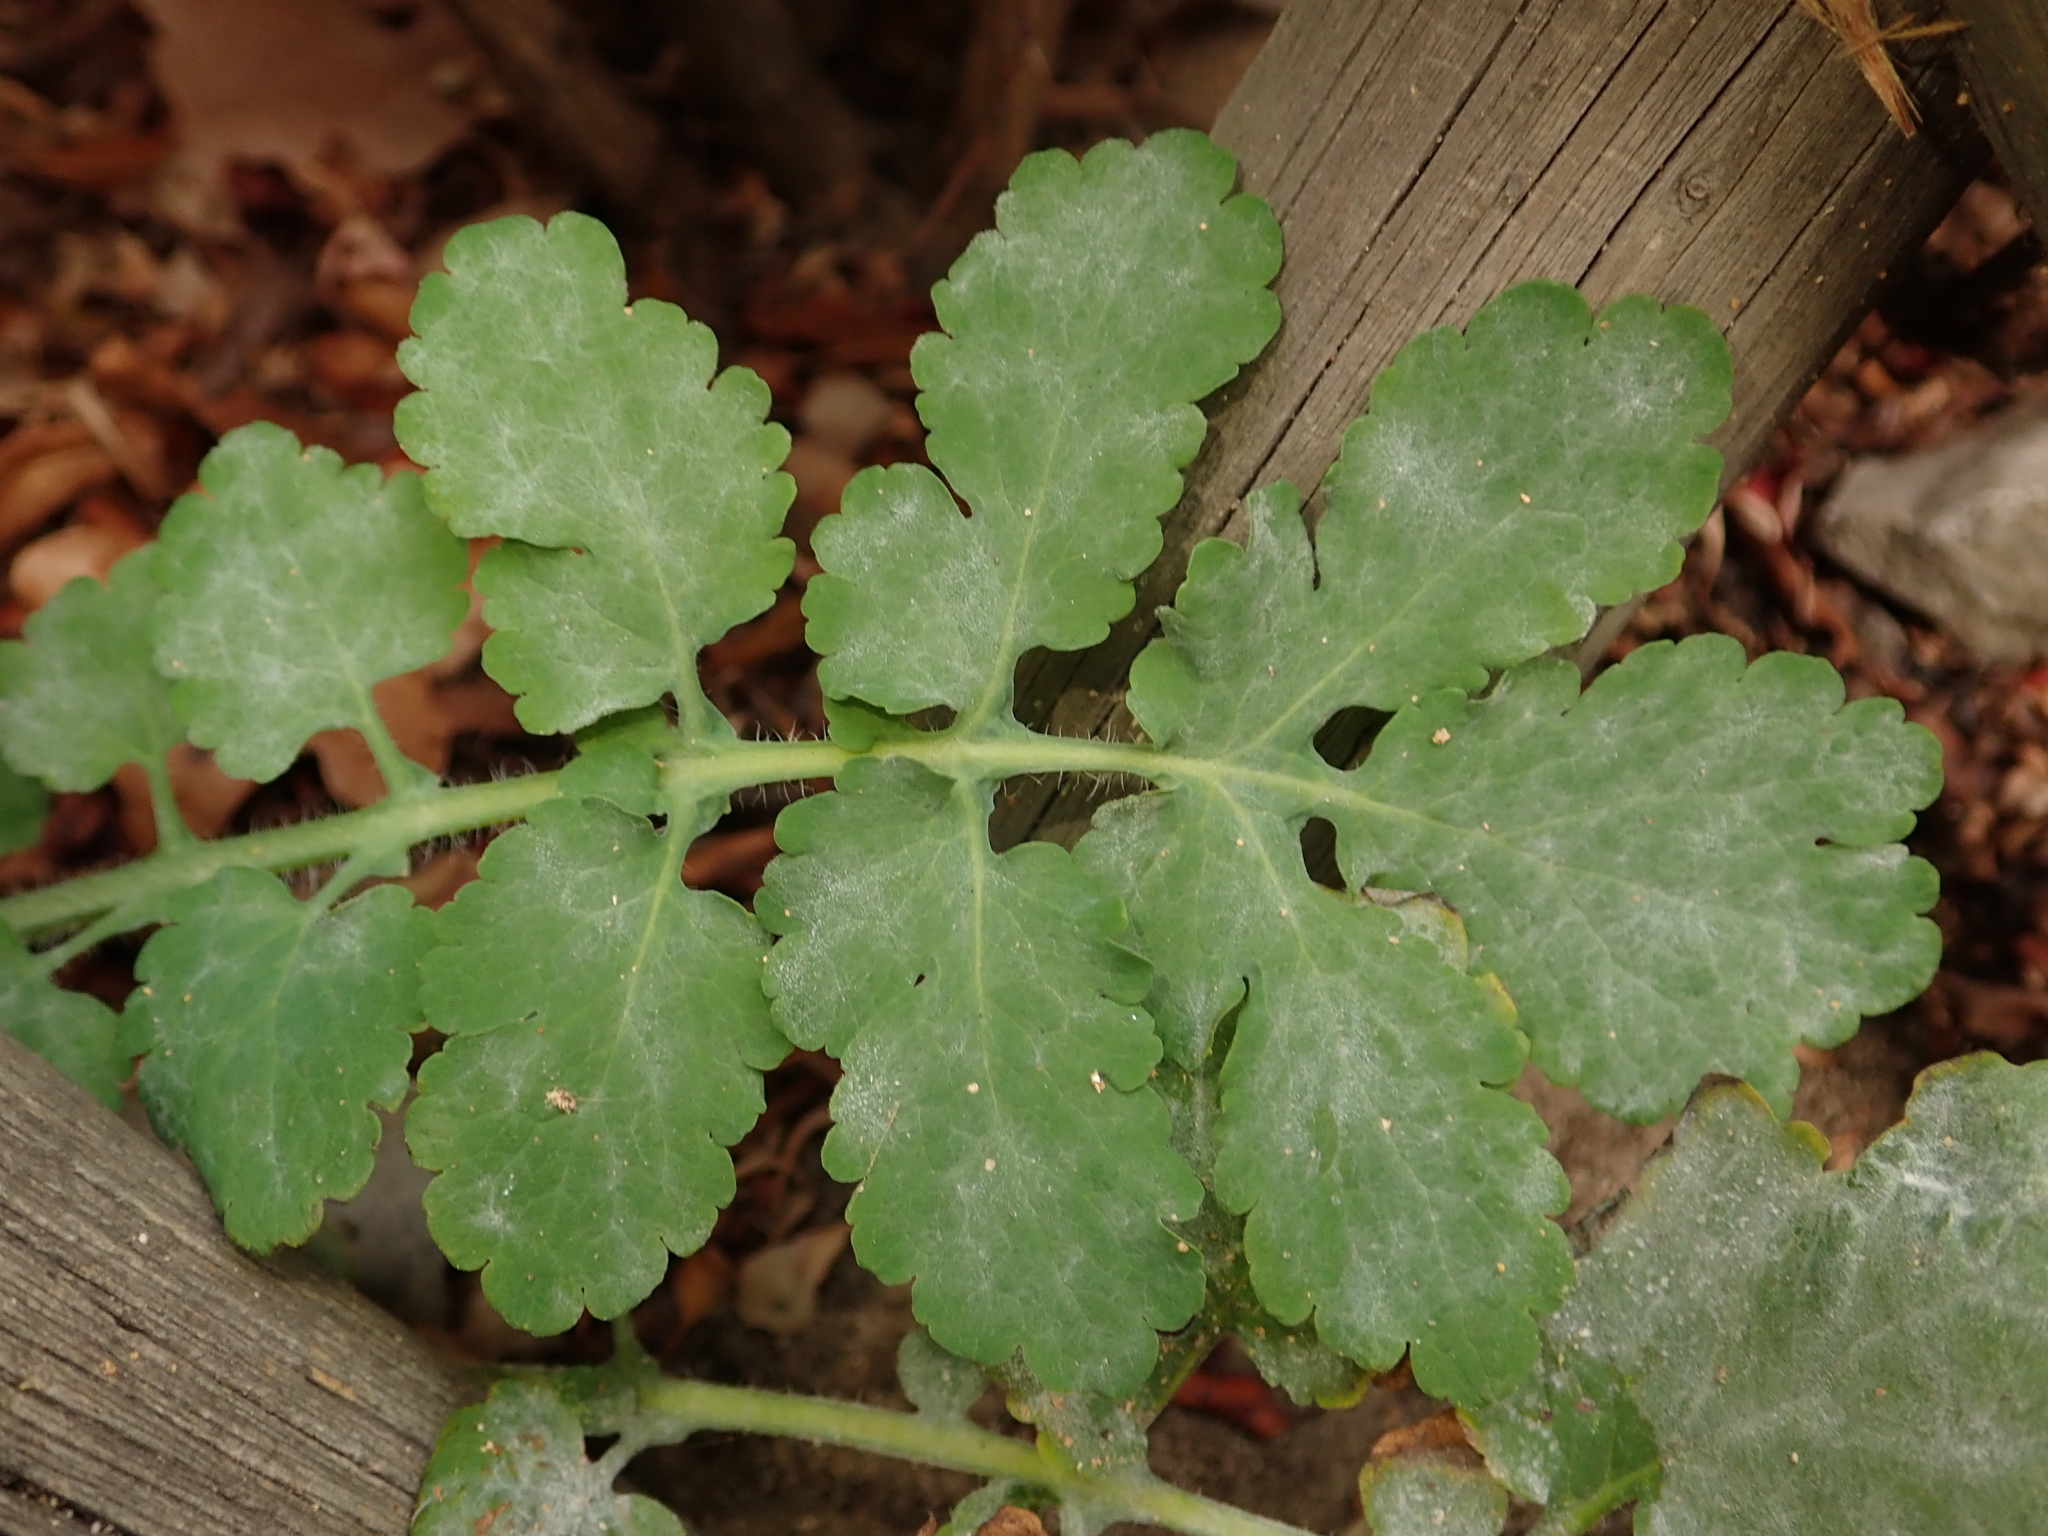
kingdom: Plantae
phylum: Tracheophyta
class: Magnoliopsida
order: Ranunculales
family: Papaveraceae
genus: Chelidonium
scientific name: Chelidonium majus
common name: Greater celandine
